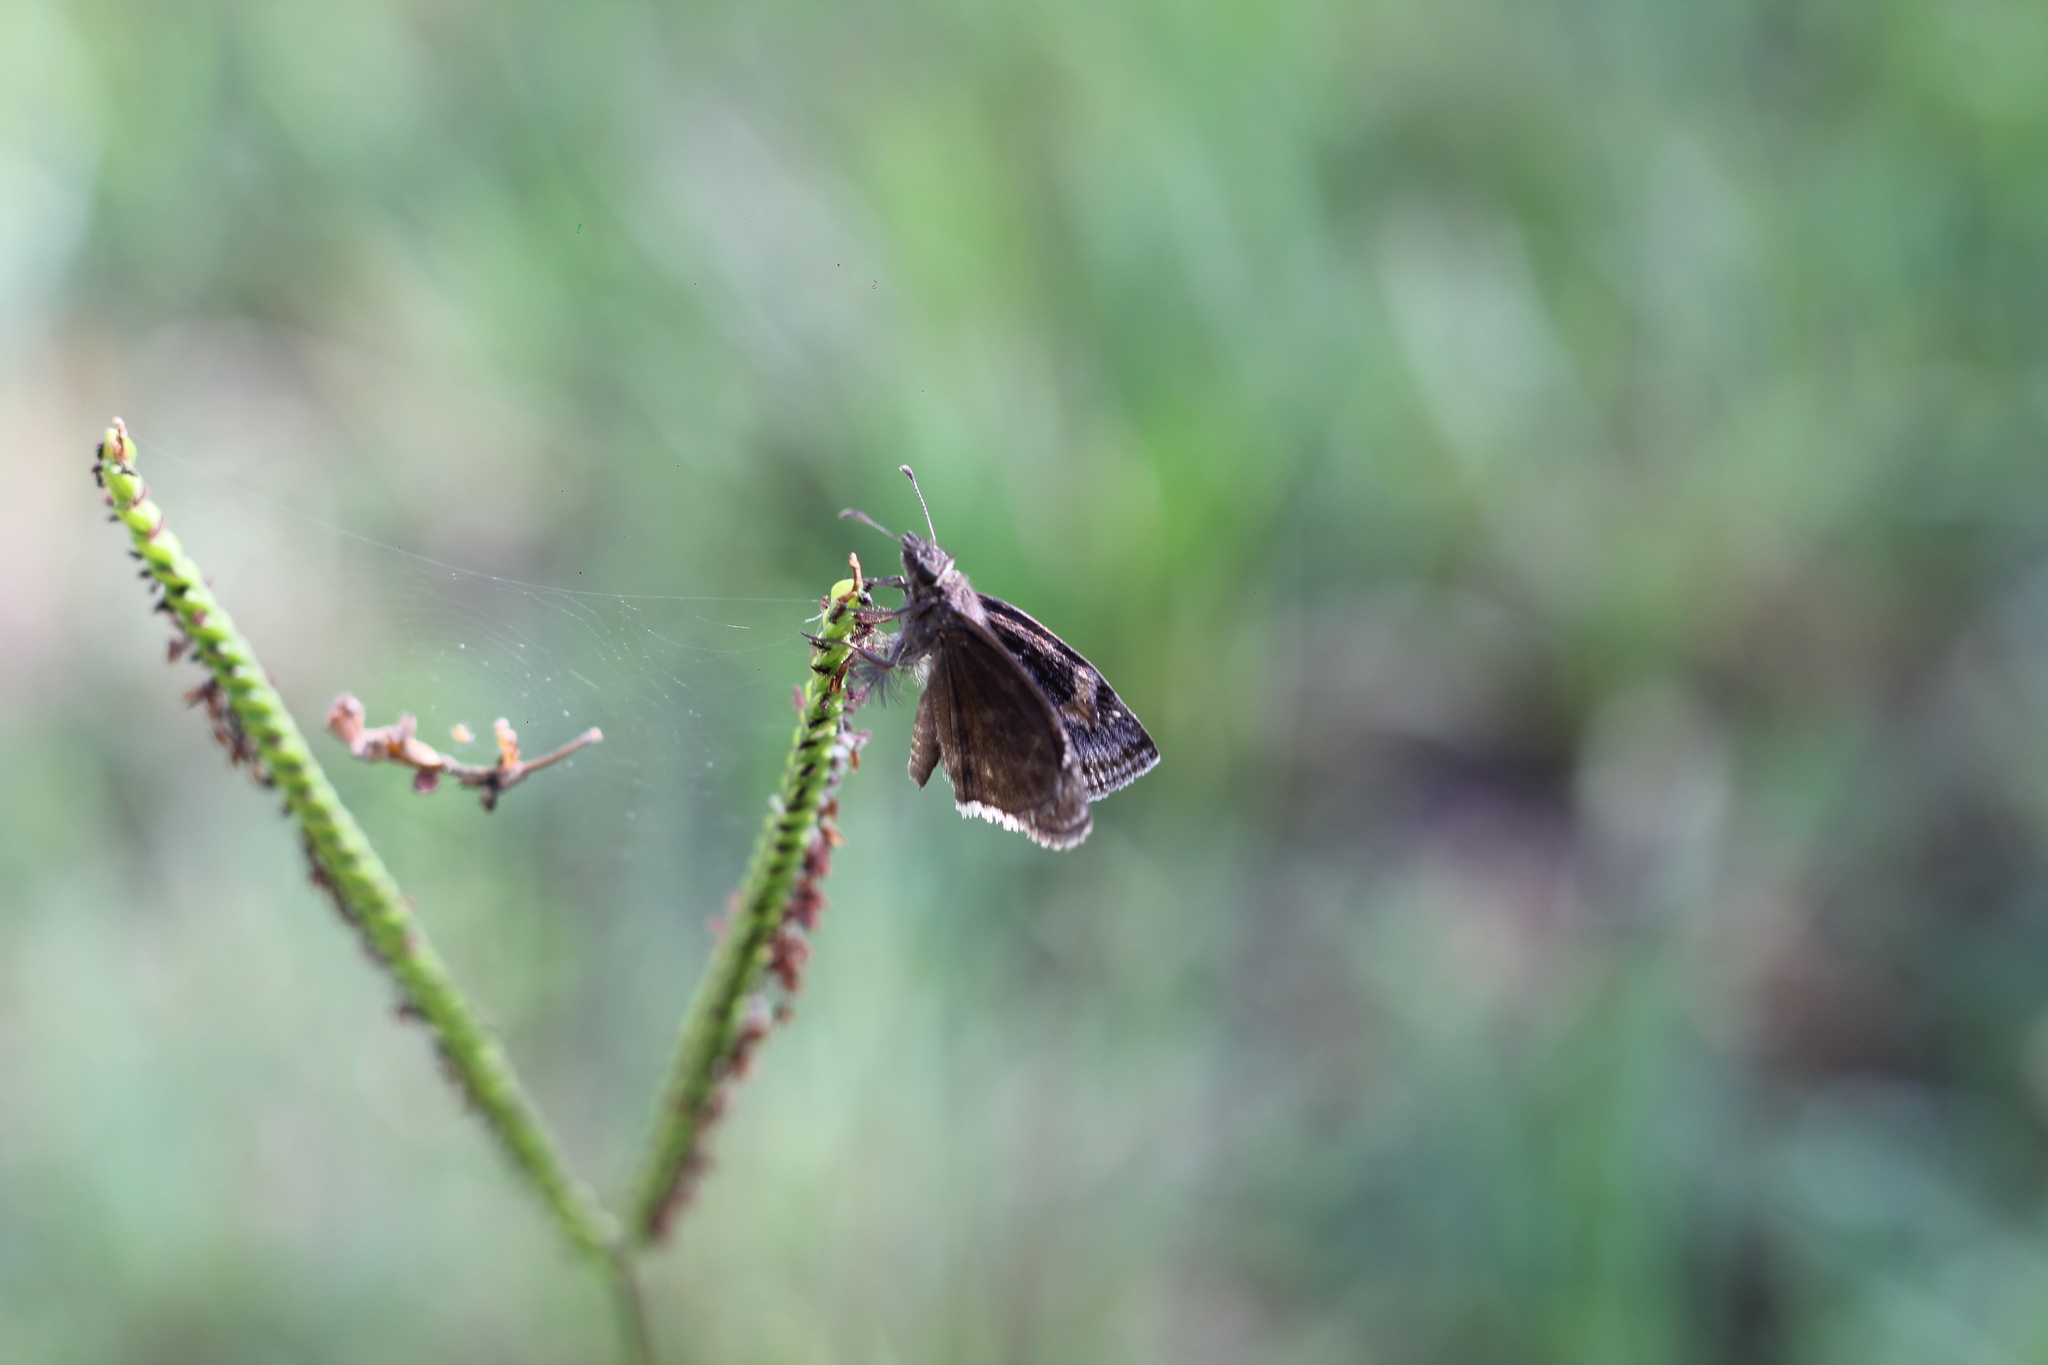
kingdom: Animalia
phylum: Arthropoda
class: Insecta
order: Lepidoptera
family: Hesperiidae
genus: Erynnis
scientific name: Erynnis funeralis
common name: Funereal duskywing
